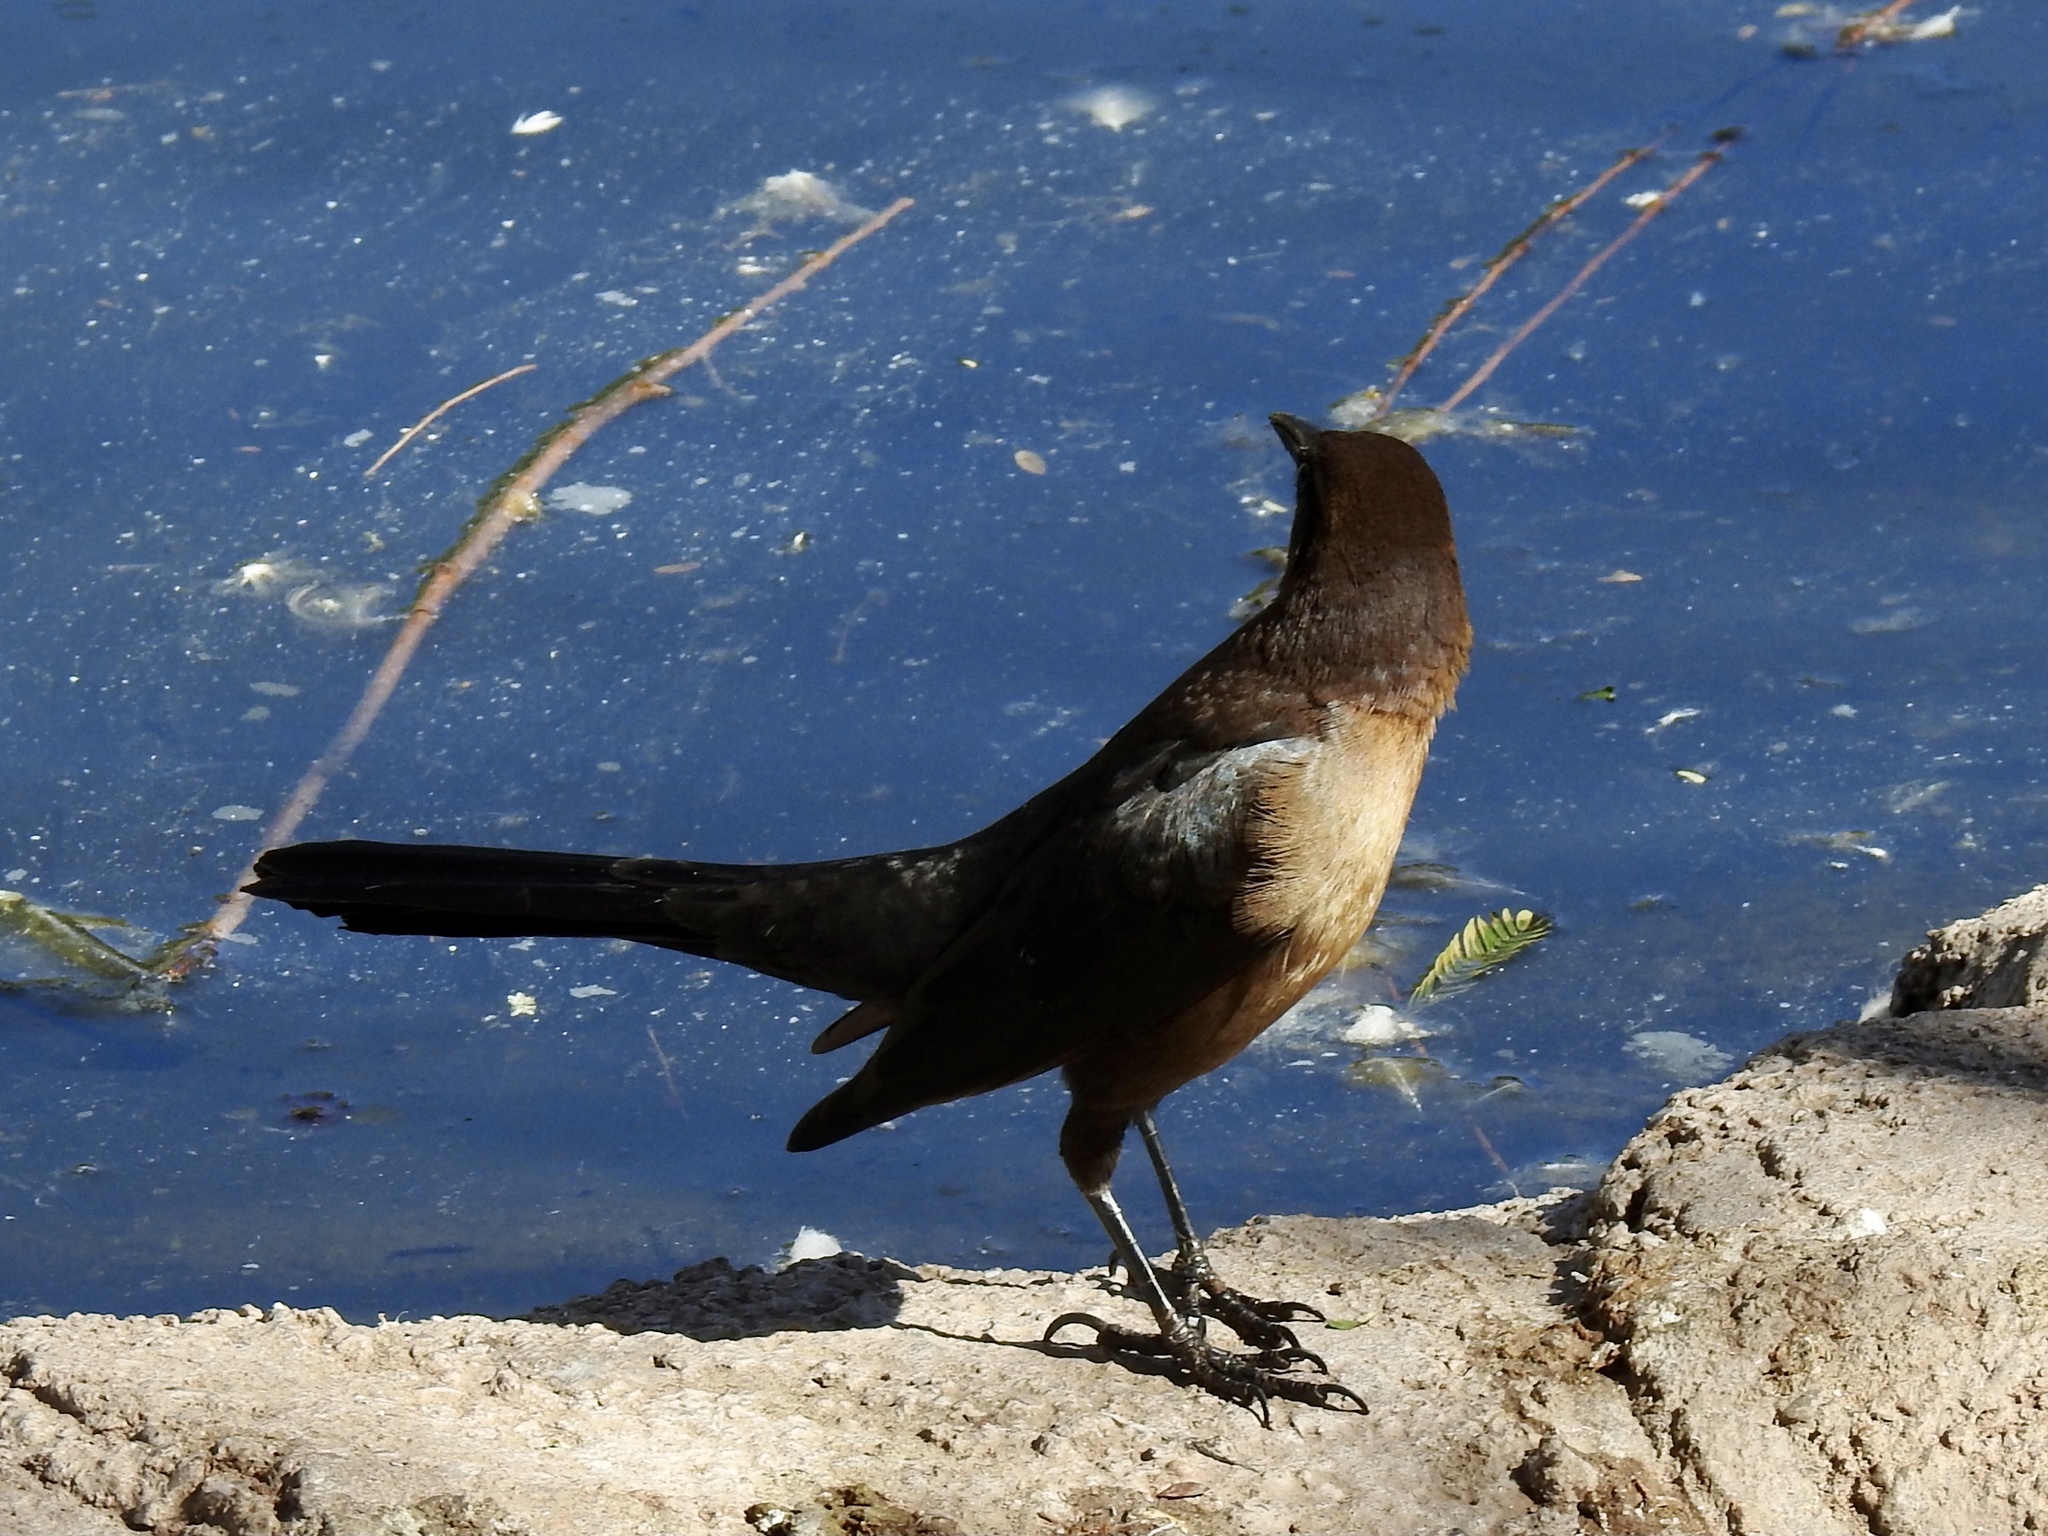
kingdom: Animalia
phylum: Chordata
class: Aves
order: Passeriformes
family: Icteridae
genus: Quiscalus
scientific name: Quiscalus mexicanus
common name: Great-tailed grackle
